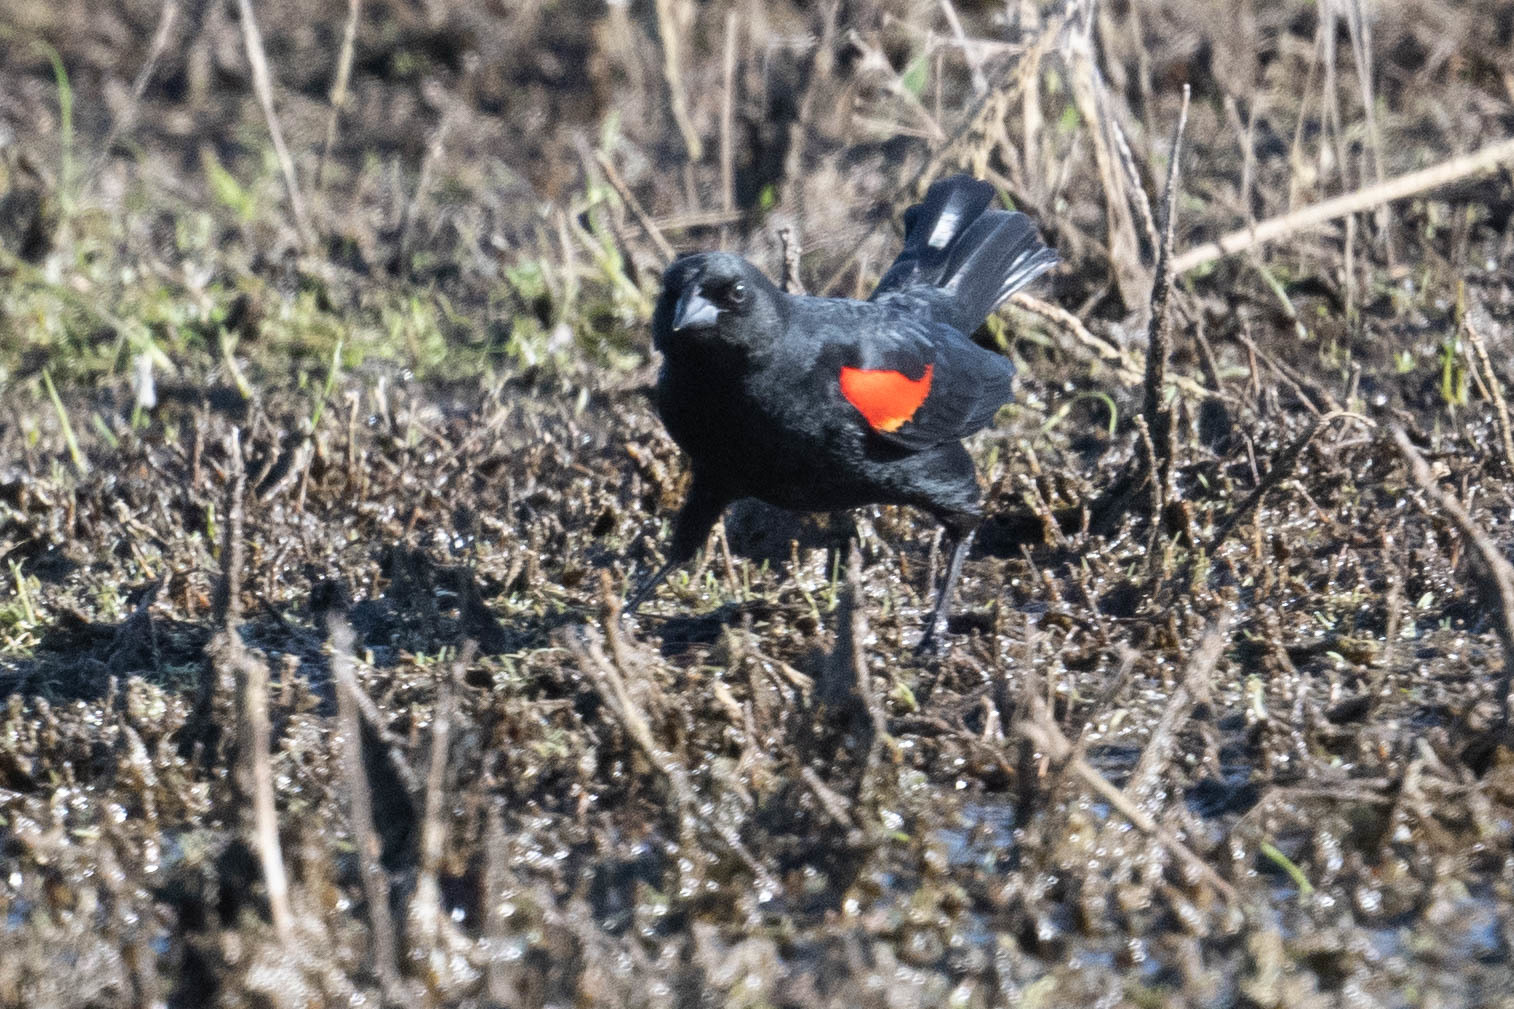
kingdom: Animalia
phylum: Chordata
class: Aves
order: Passeriformes
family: Icteridae
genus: Agelaius
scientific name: Agelaius phoeniceus
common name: Red-winged blackbird
